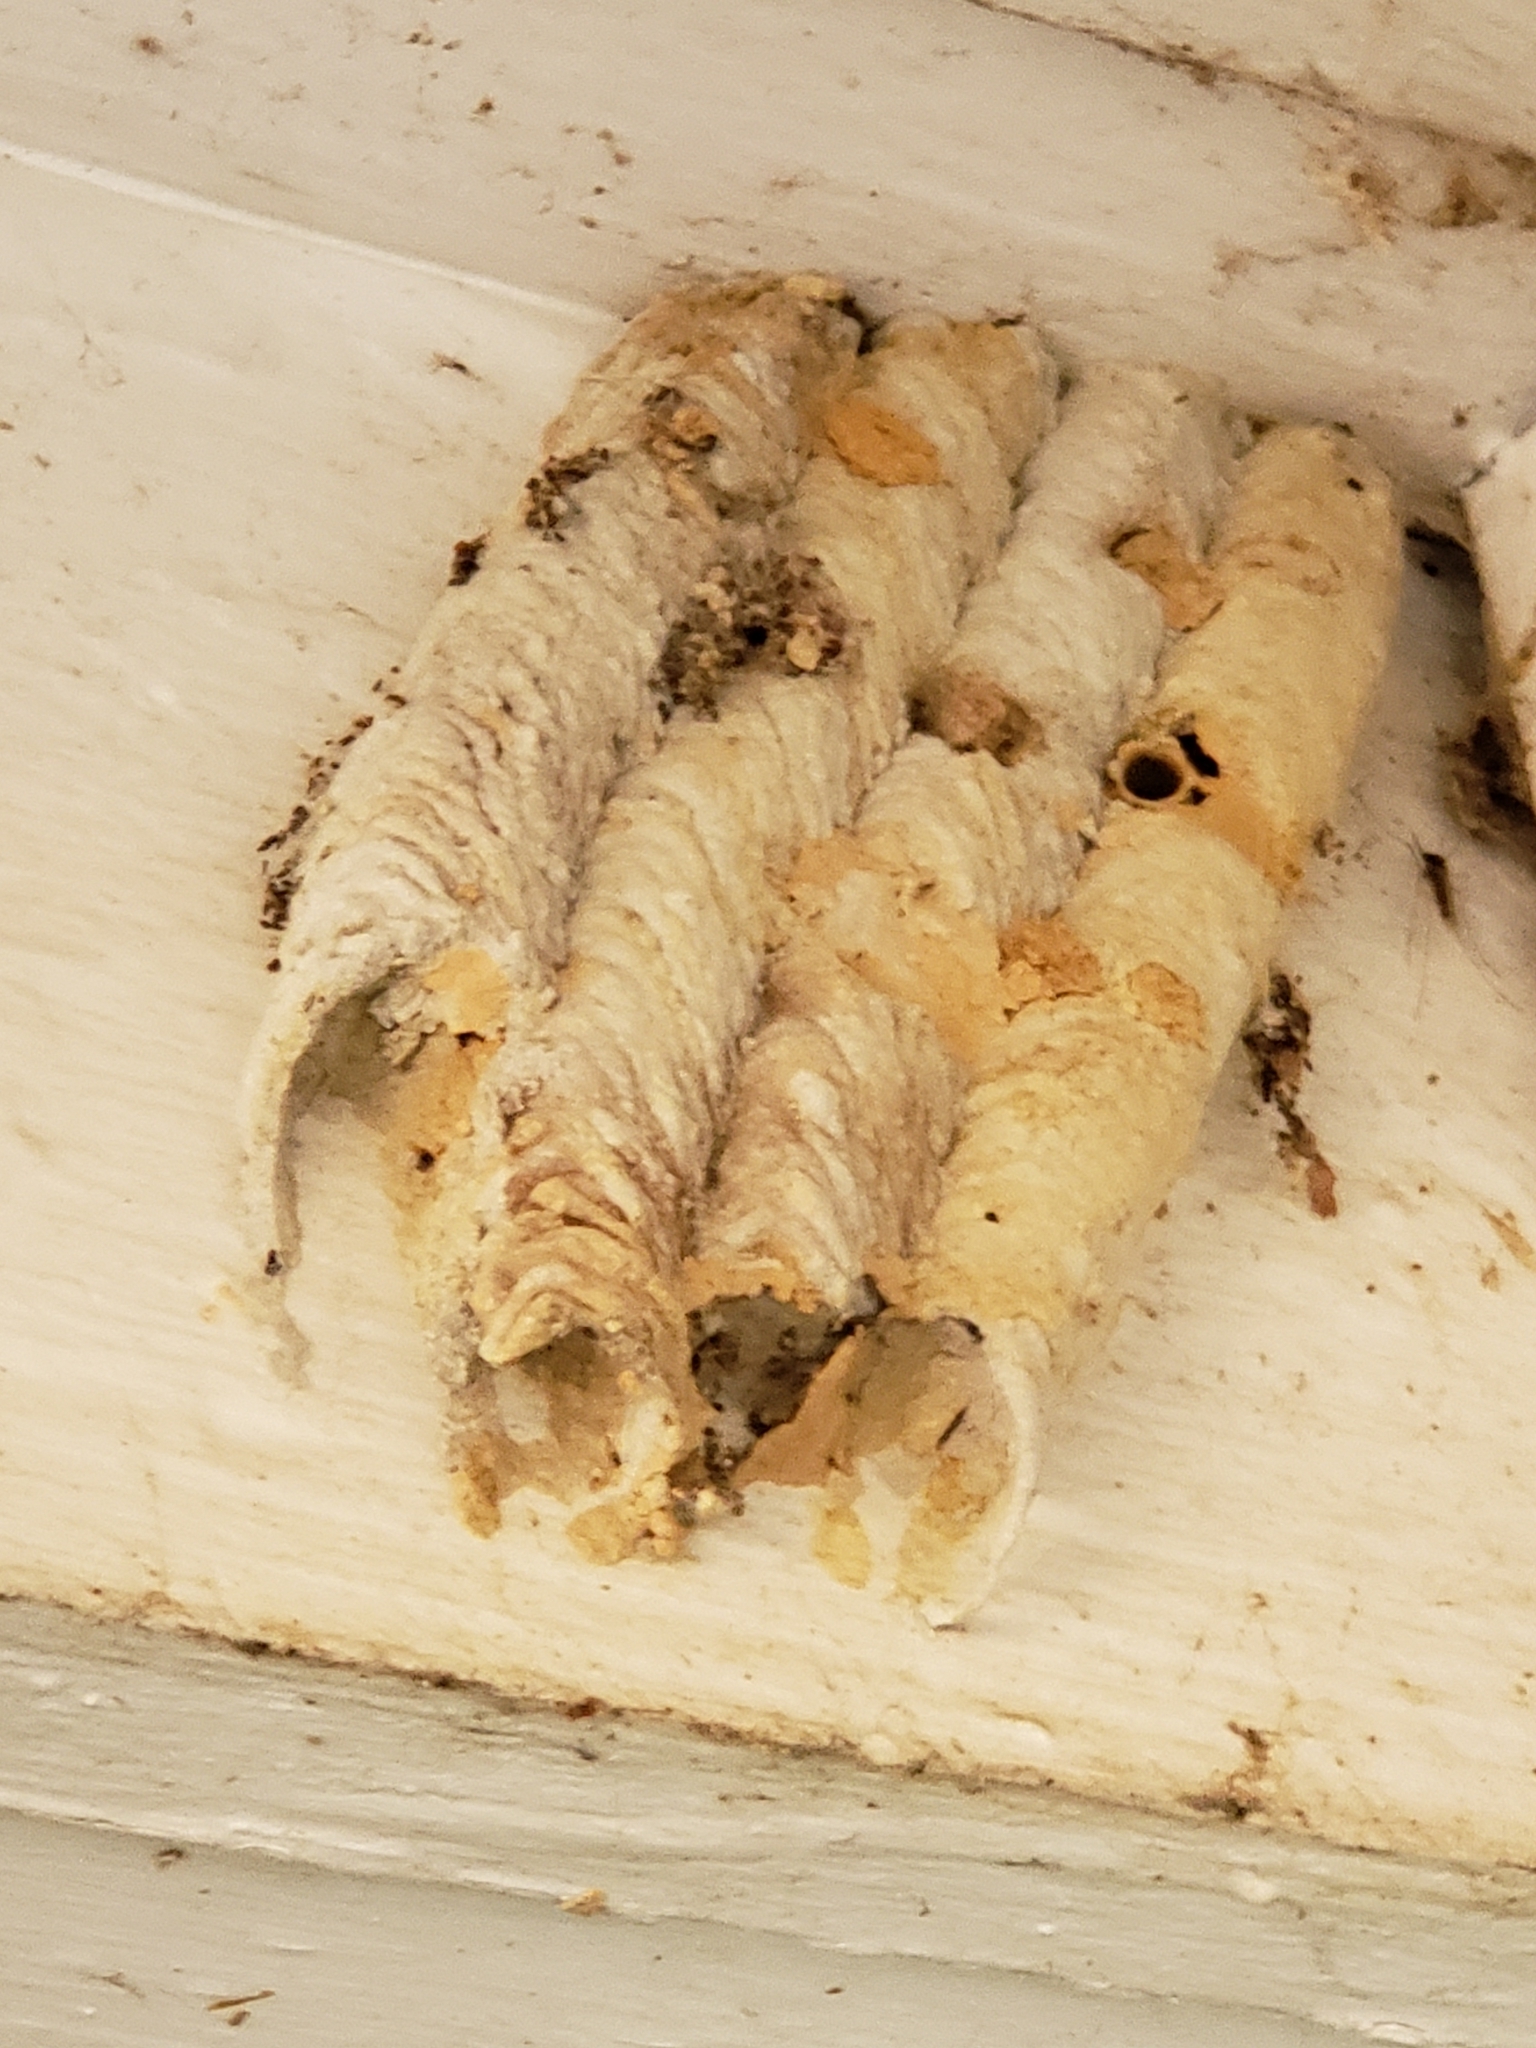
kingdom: Animalia
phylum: Arthropoda
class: Insecta
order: Hymenoptera
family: Crabronidae
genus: Trypoxylon
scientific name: Trypoxylon politum
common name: Organ-pipe mud-dauber wasp
